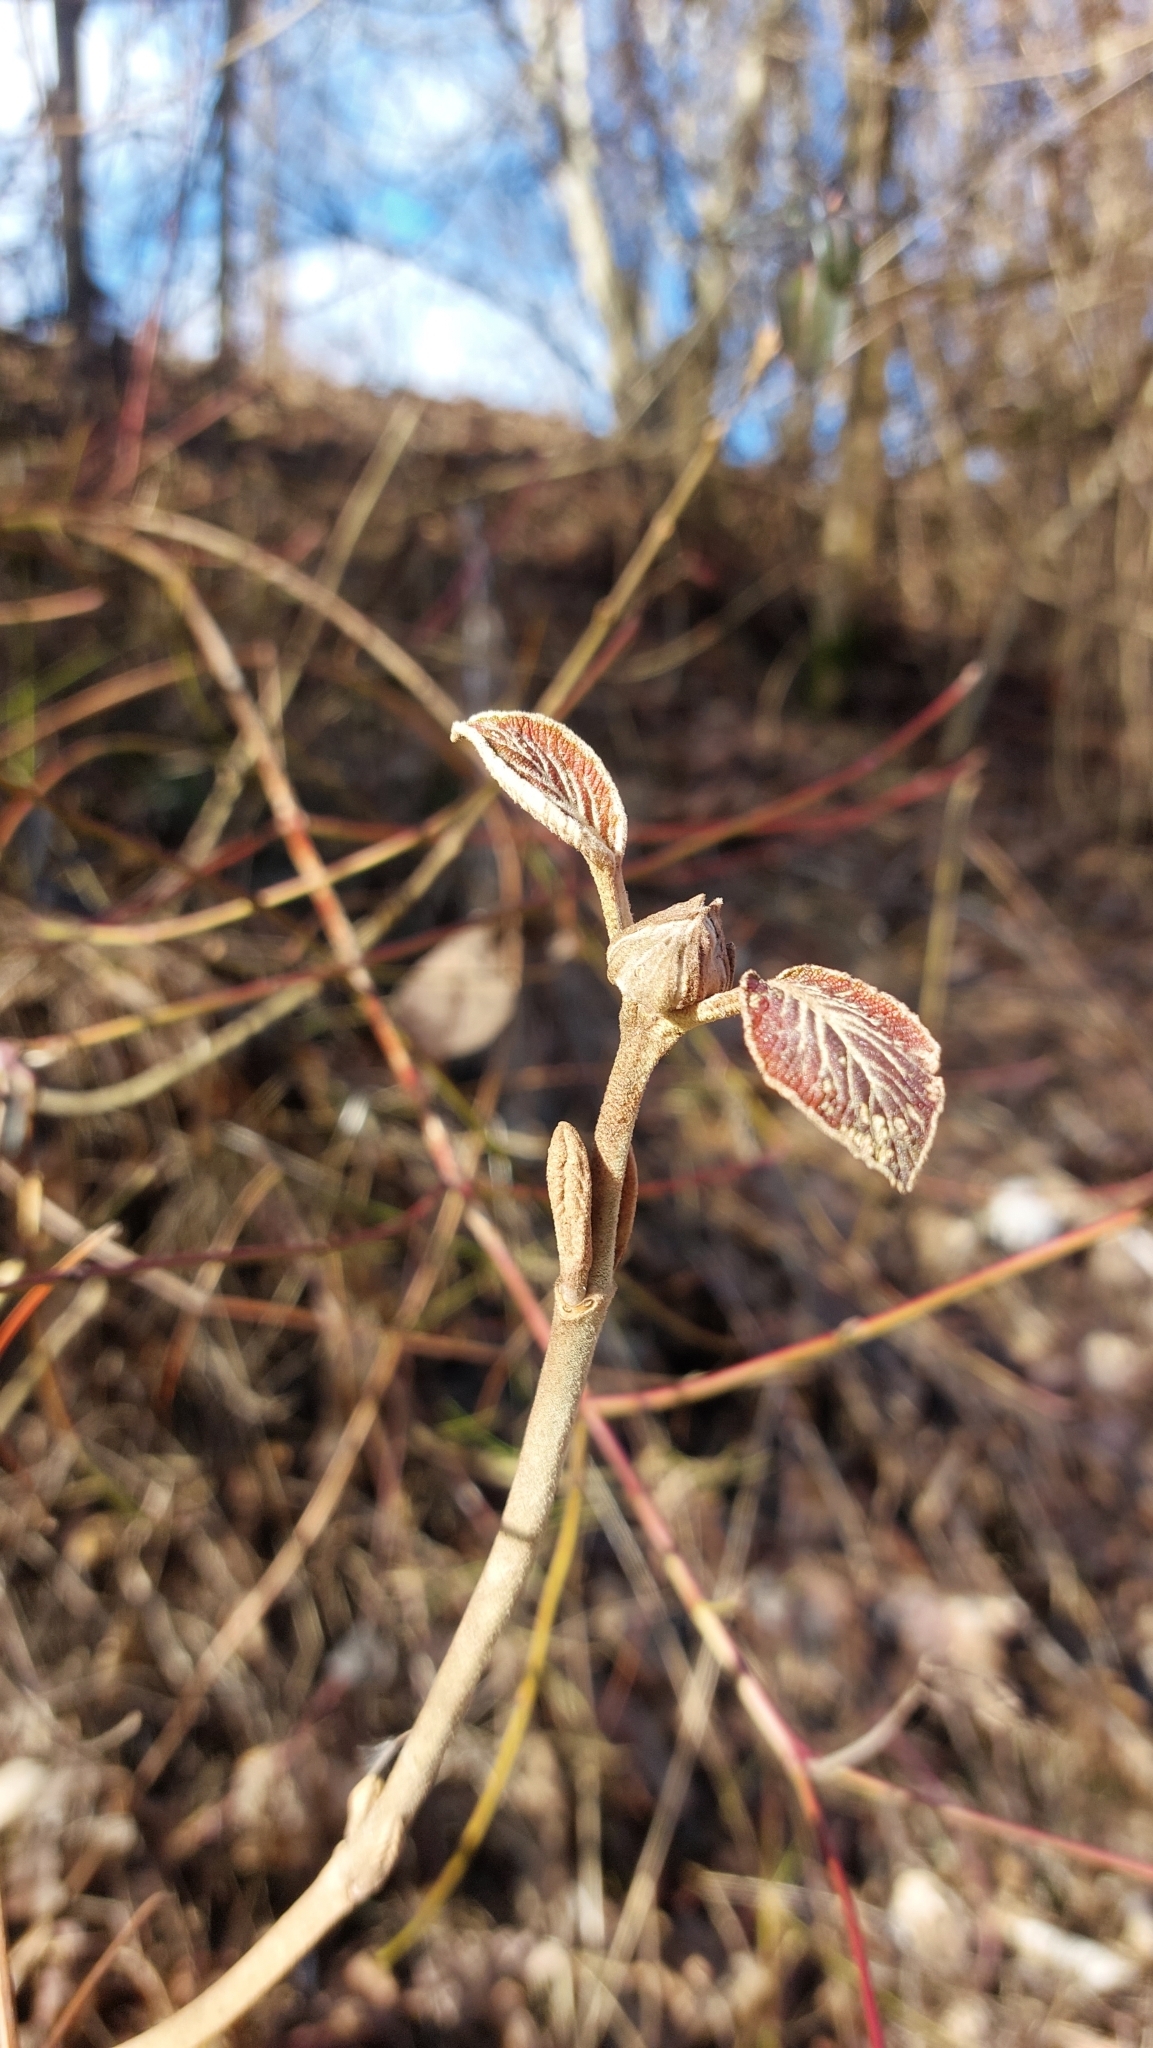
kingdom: Plantae
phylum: Tracheophyta
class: Magnoliopsida
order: Dipsacales
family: Viburnaceae
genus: Viburnum
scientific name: Viburnum lantana
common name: Wayfaring tree
